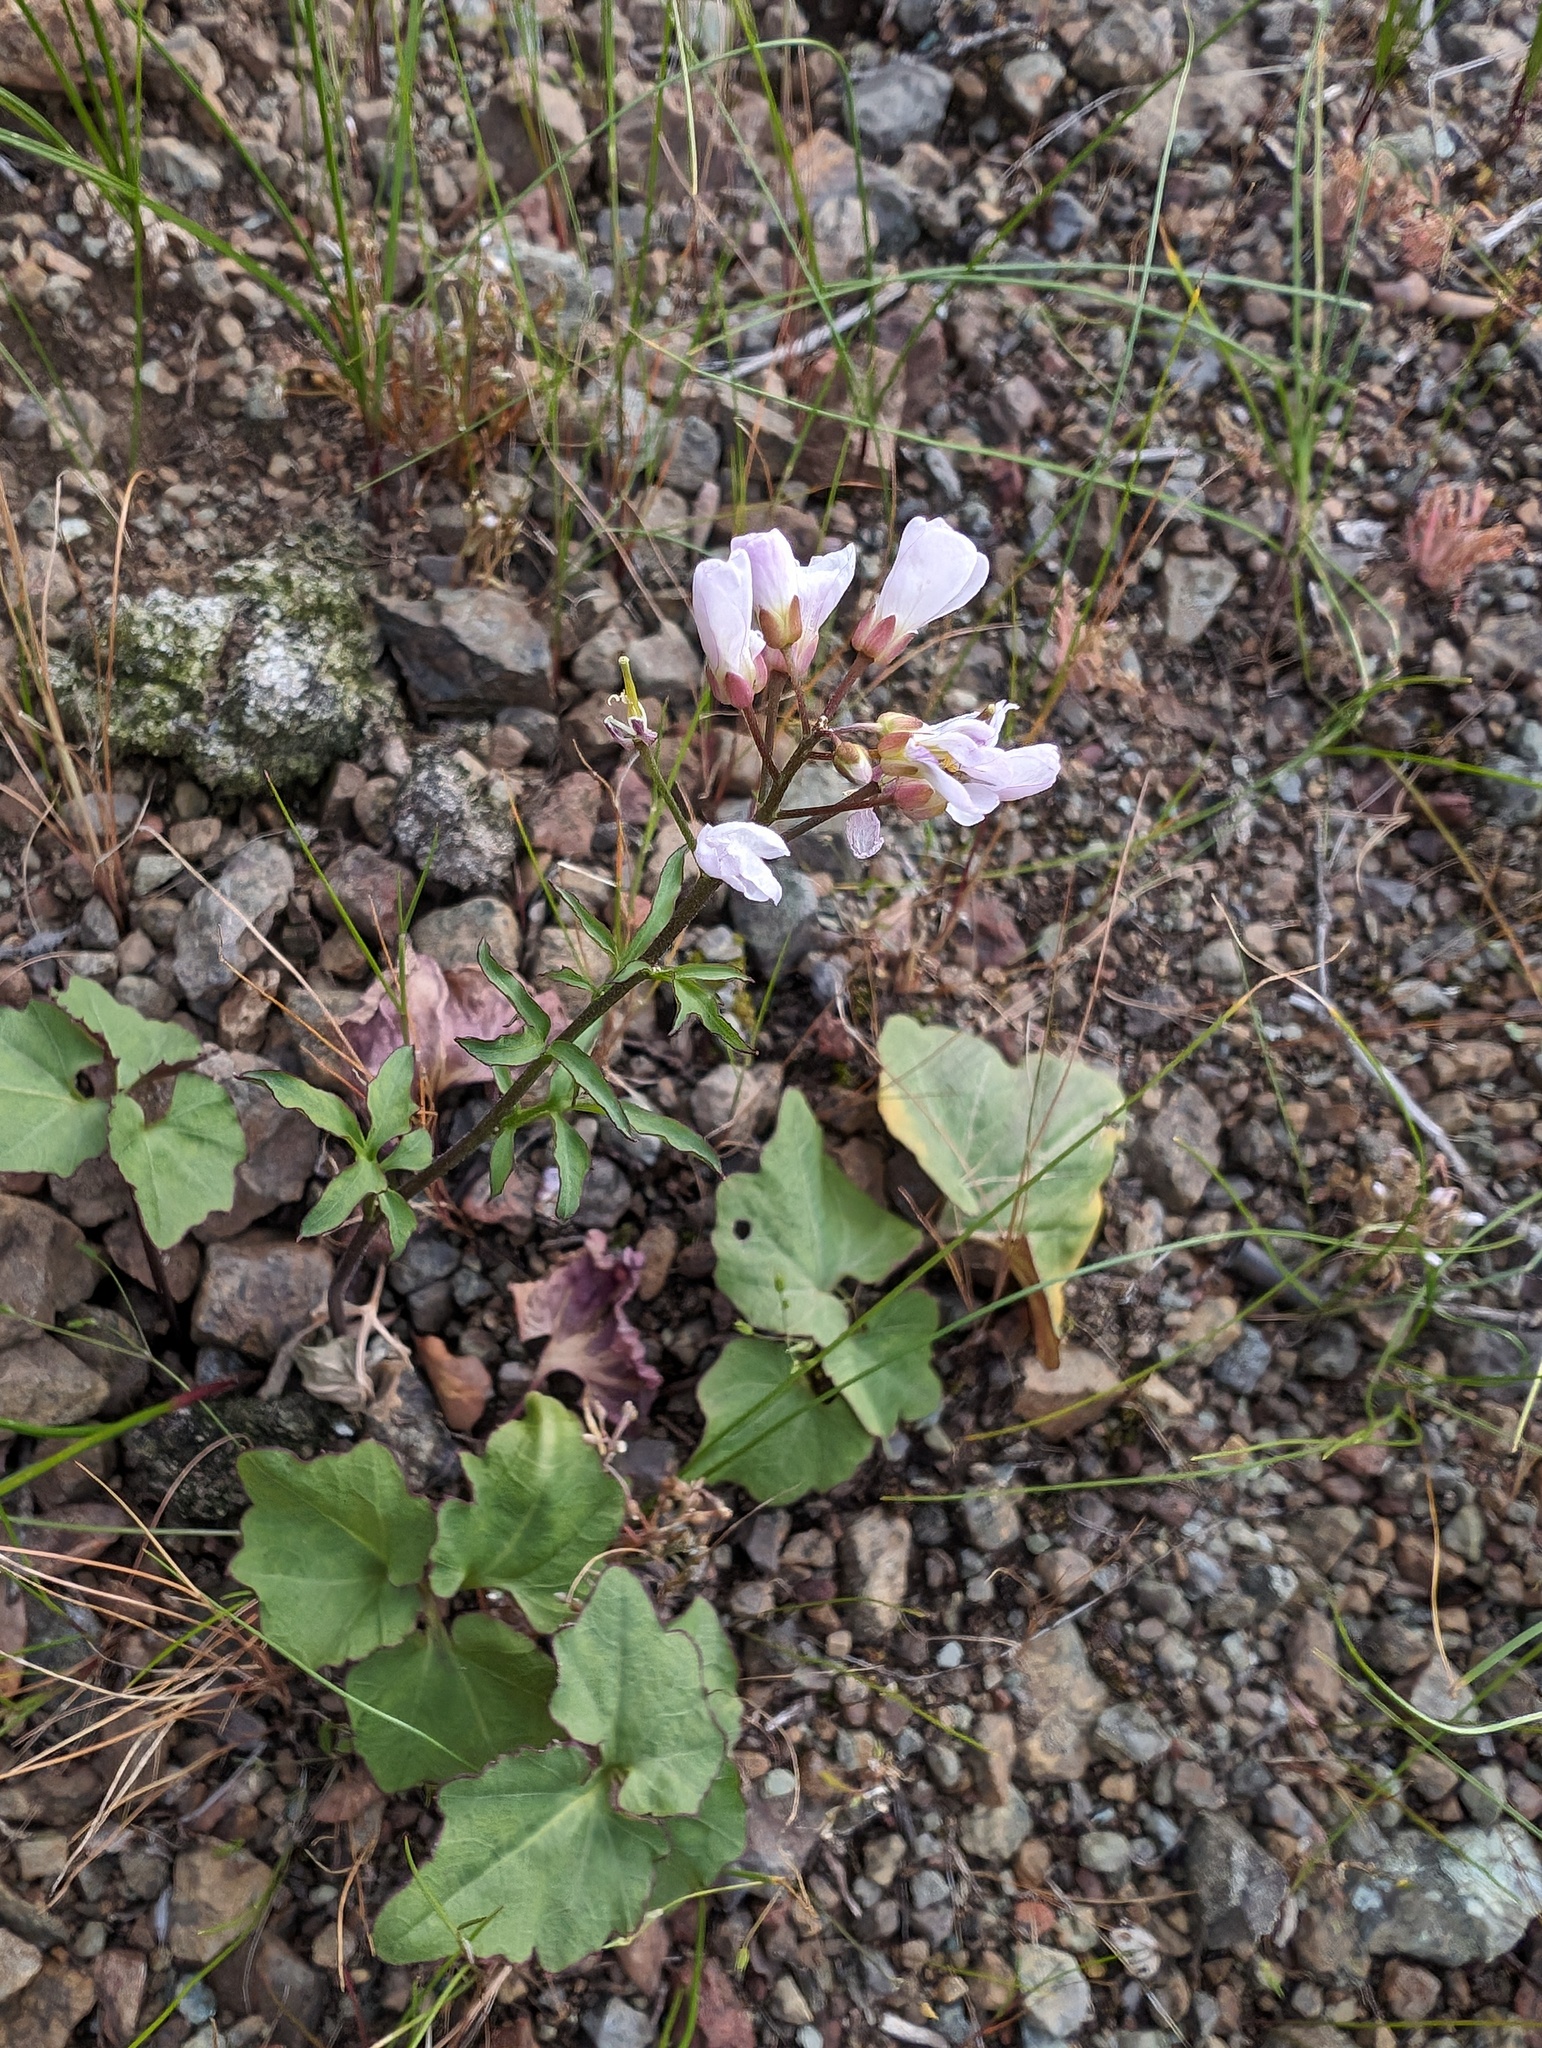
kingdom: Plantae
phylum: Tracheophyta
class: Magnoliopsida
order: Brassicales
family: Brassicaceae
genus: Cardamine
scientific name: Cardamine californica
